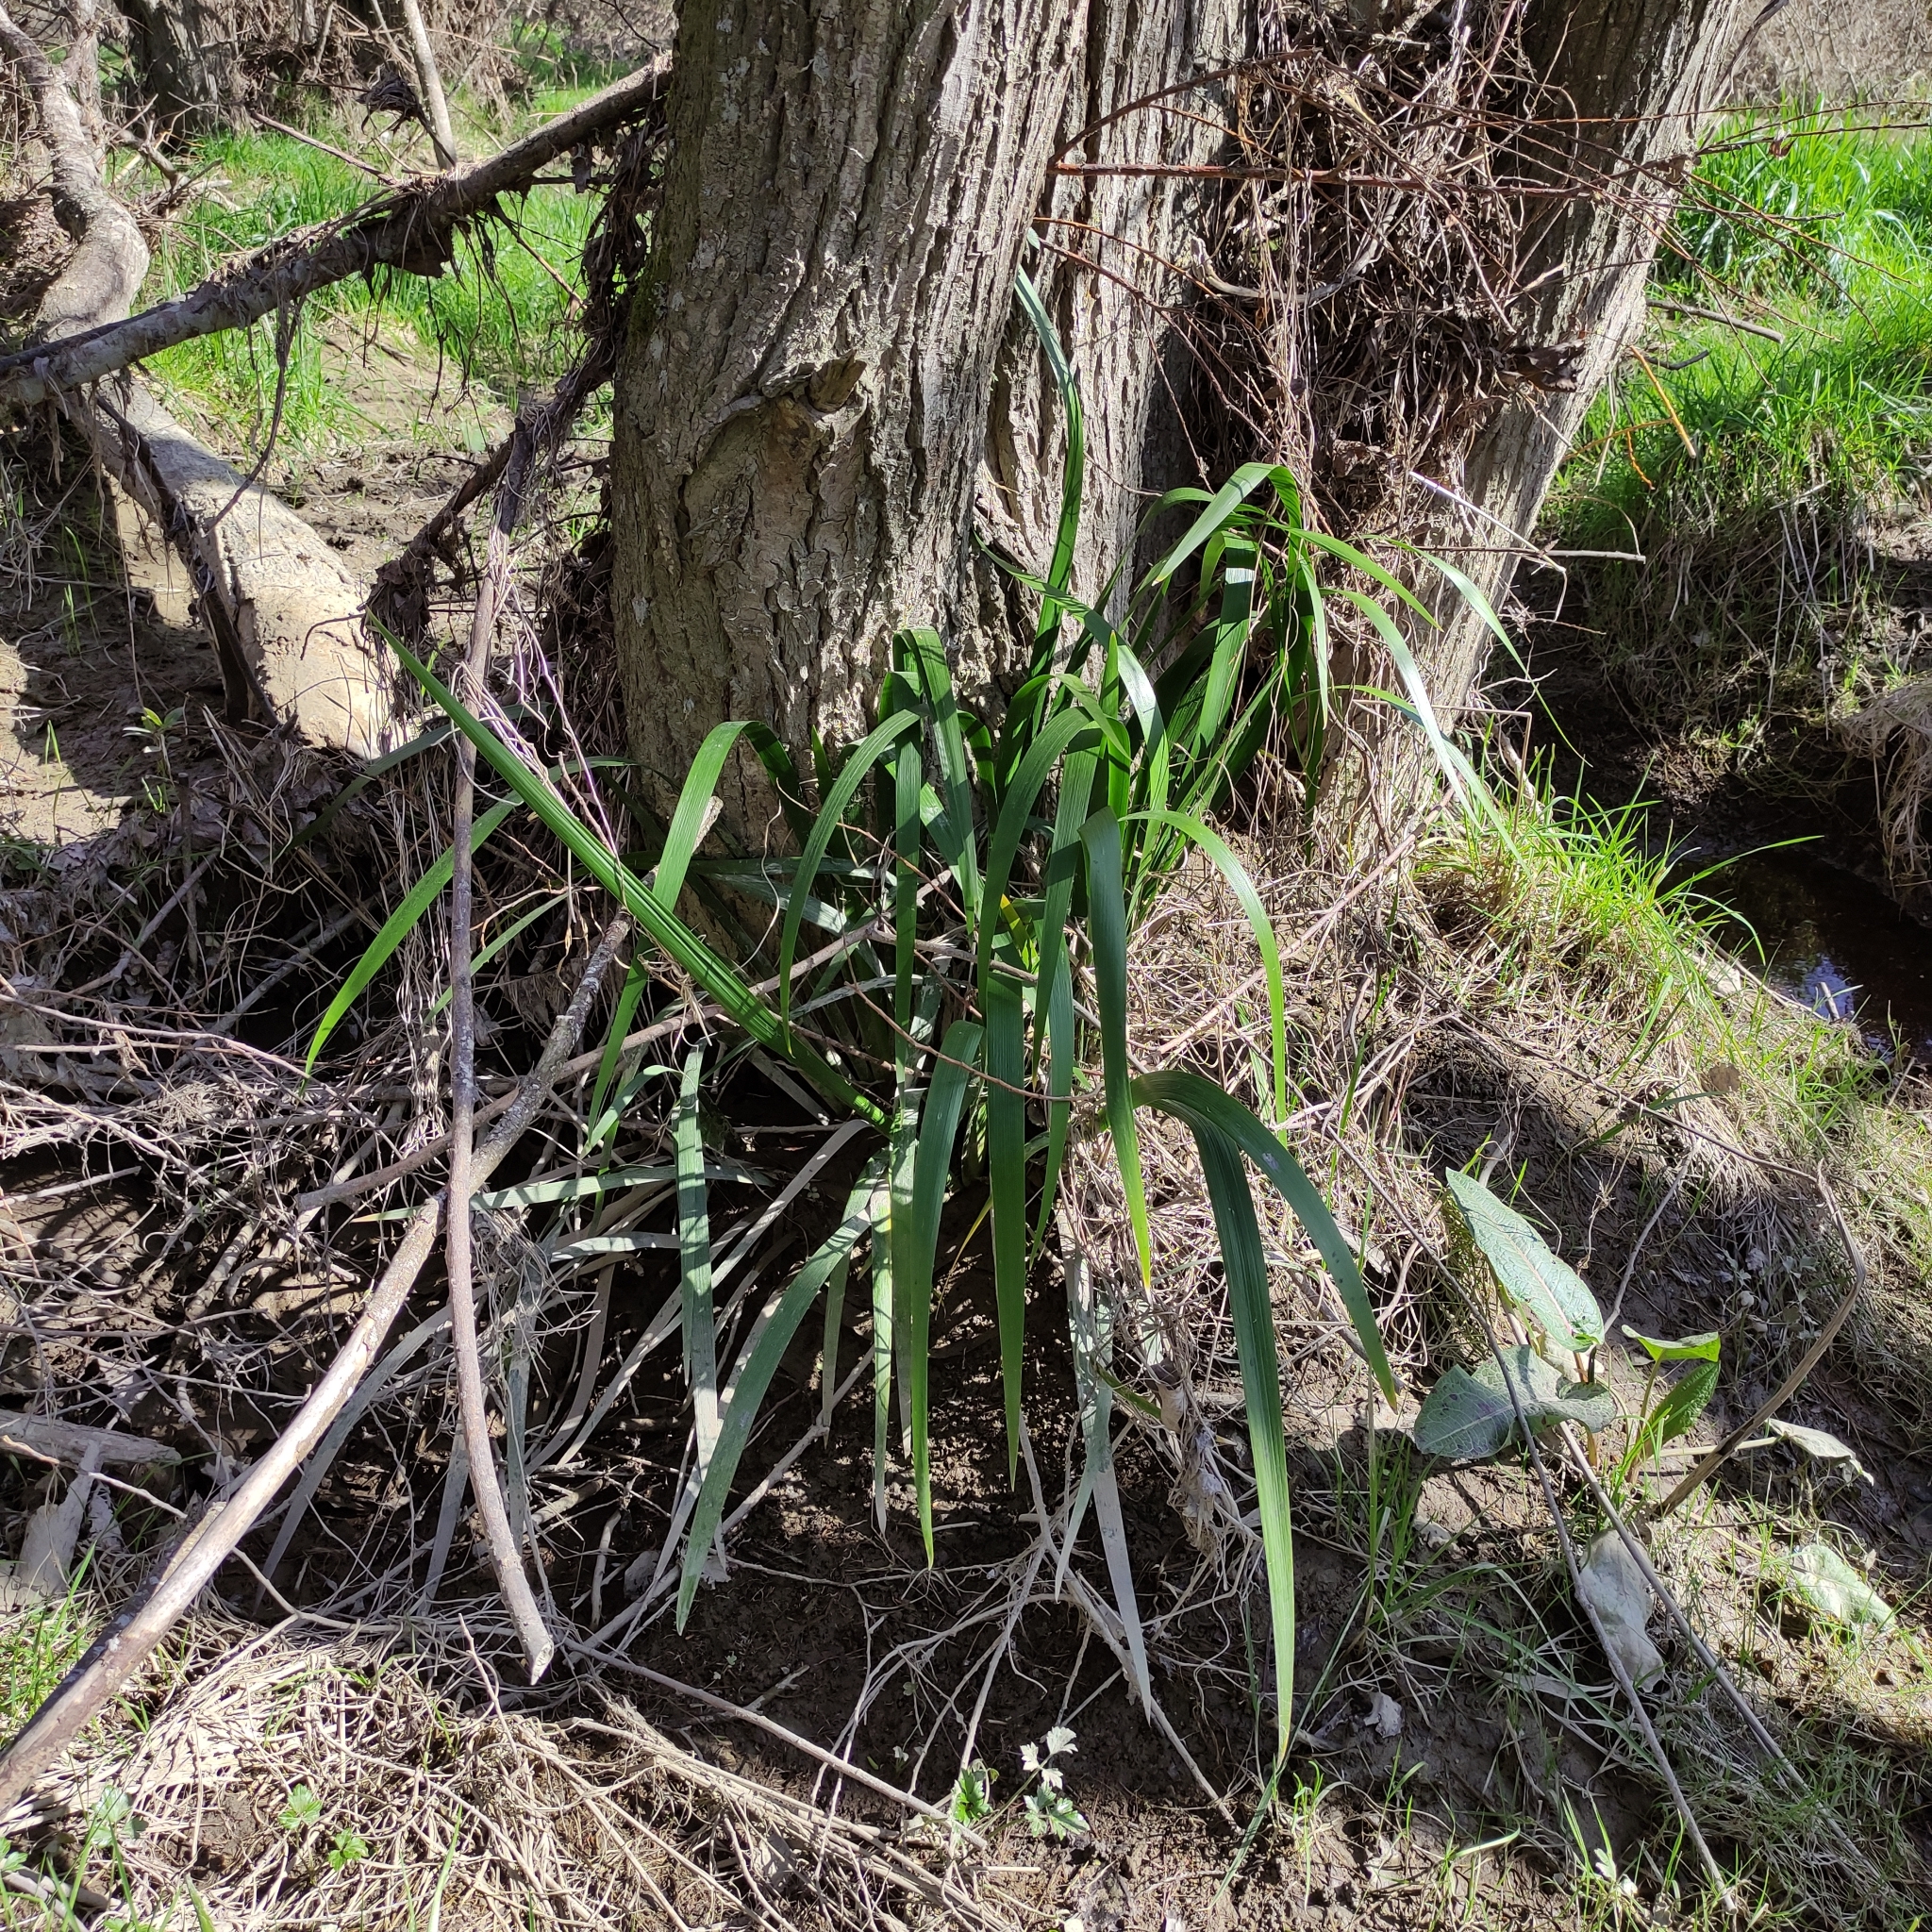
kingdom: Plantae
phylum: Tracheophyta
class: Liliopsida
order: Asparagales
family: Iridaceae
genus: Iris
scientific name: Iris foetidissima
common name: Stinking iris
